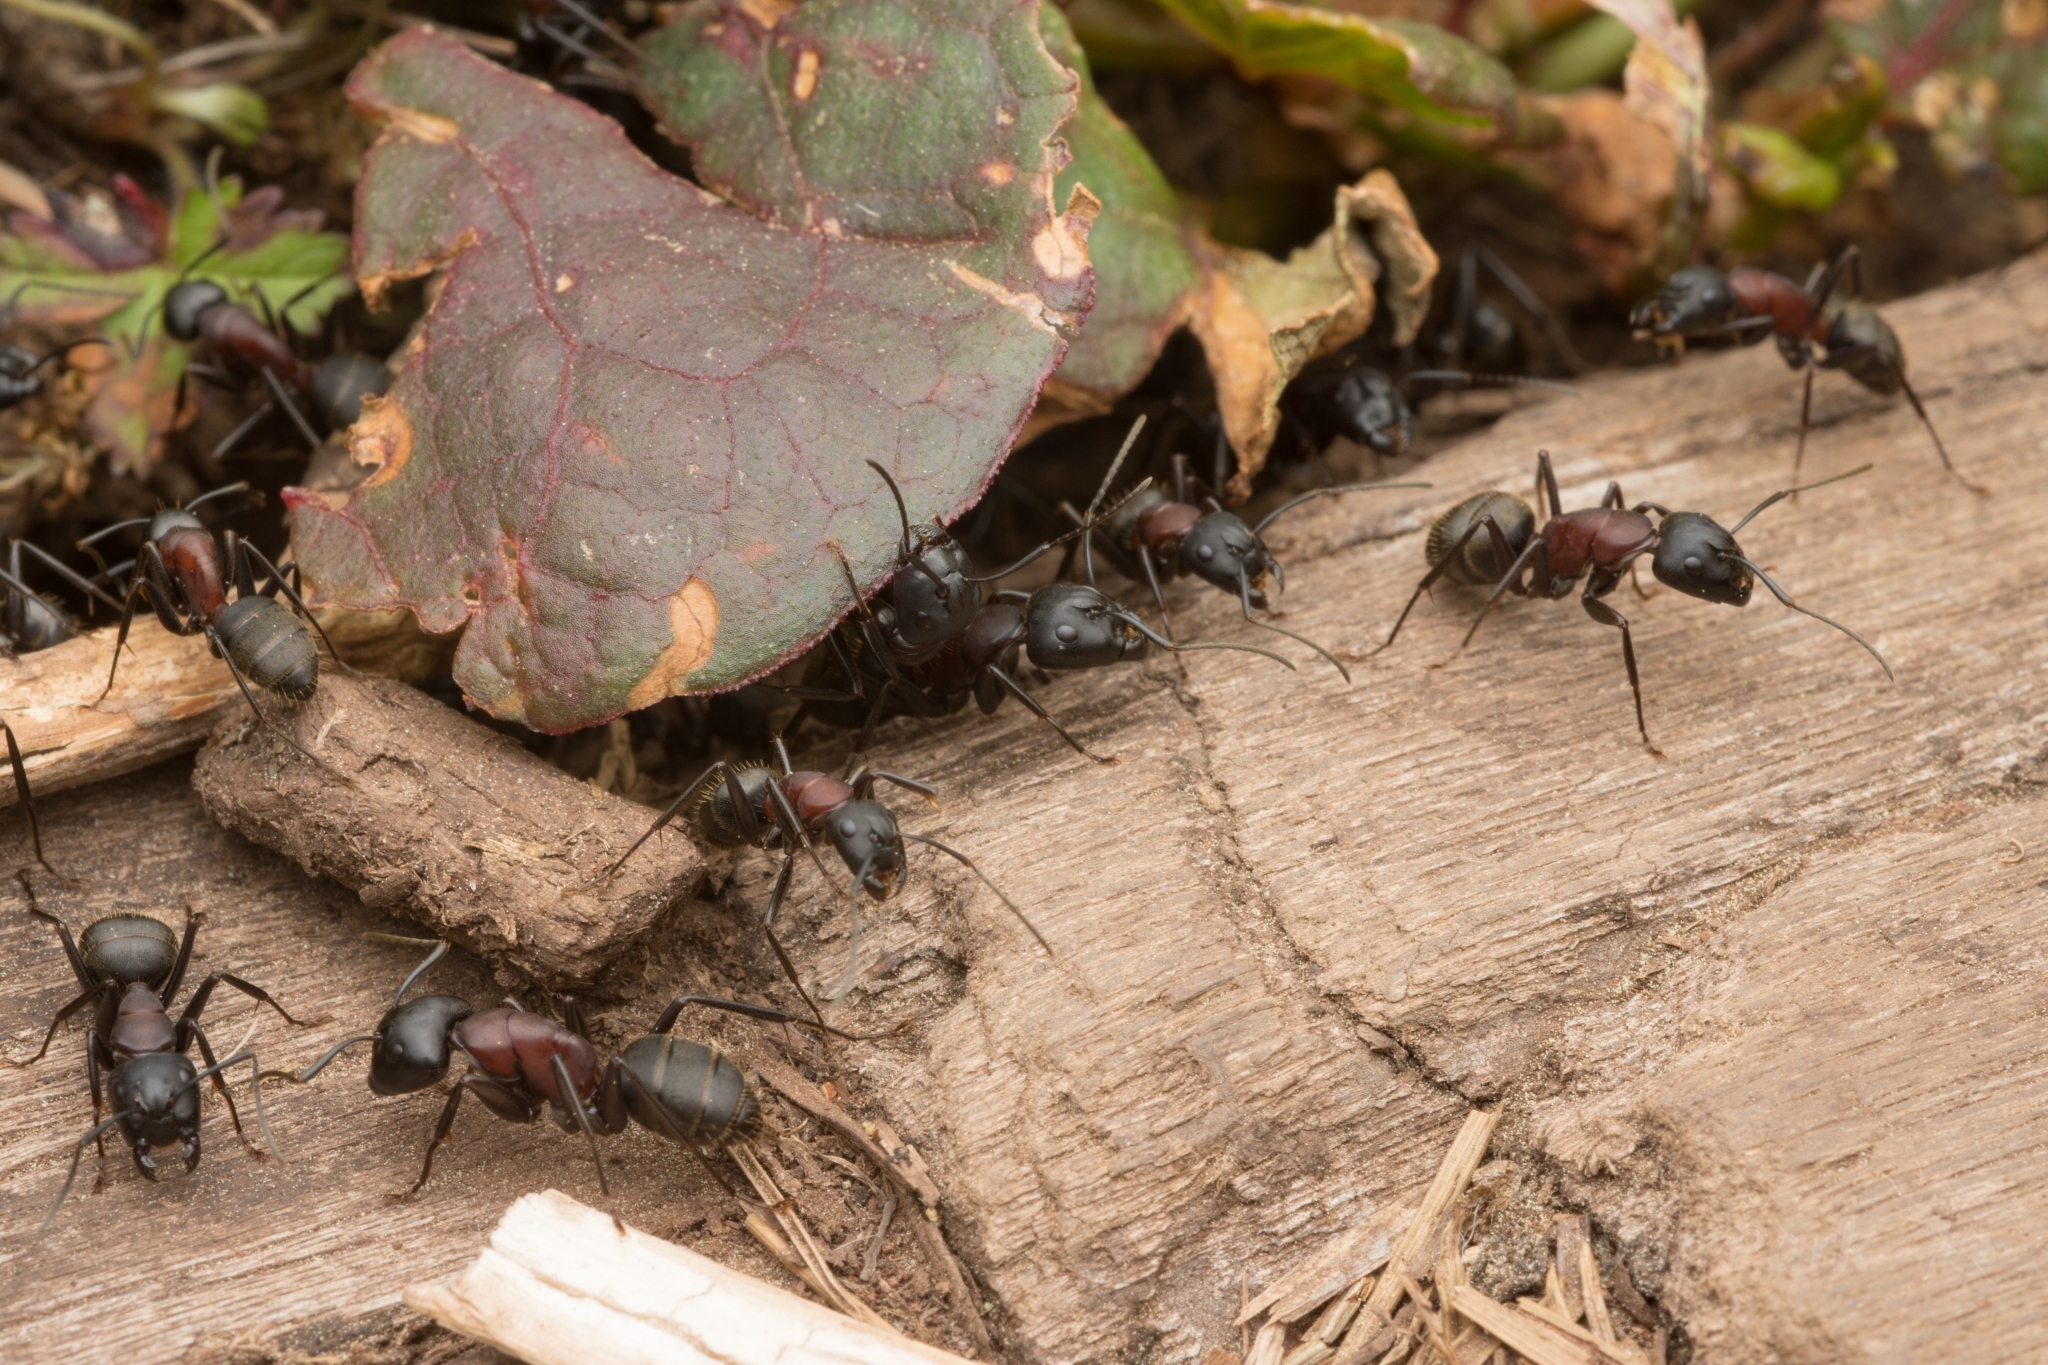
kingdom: Animalia
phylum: Arthropoda
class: Insecta
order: Hymenoptera
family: Formicidae
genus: Camponotus
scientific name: Camponotus atrox
